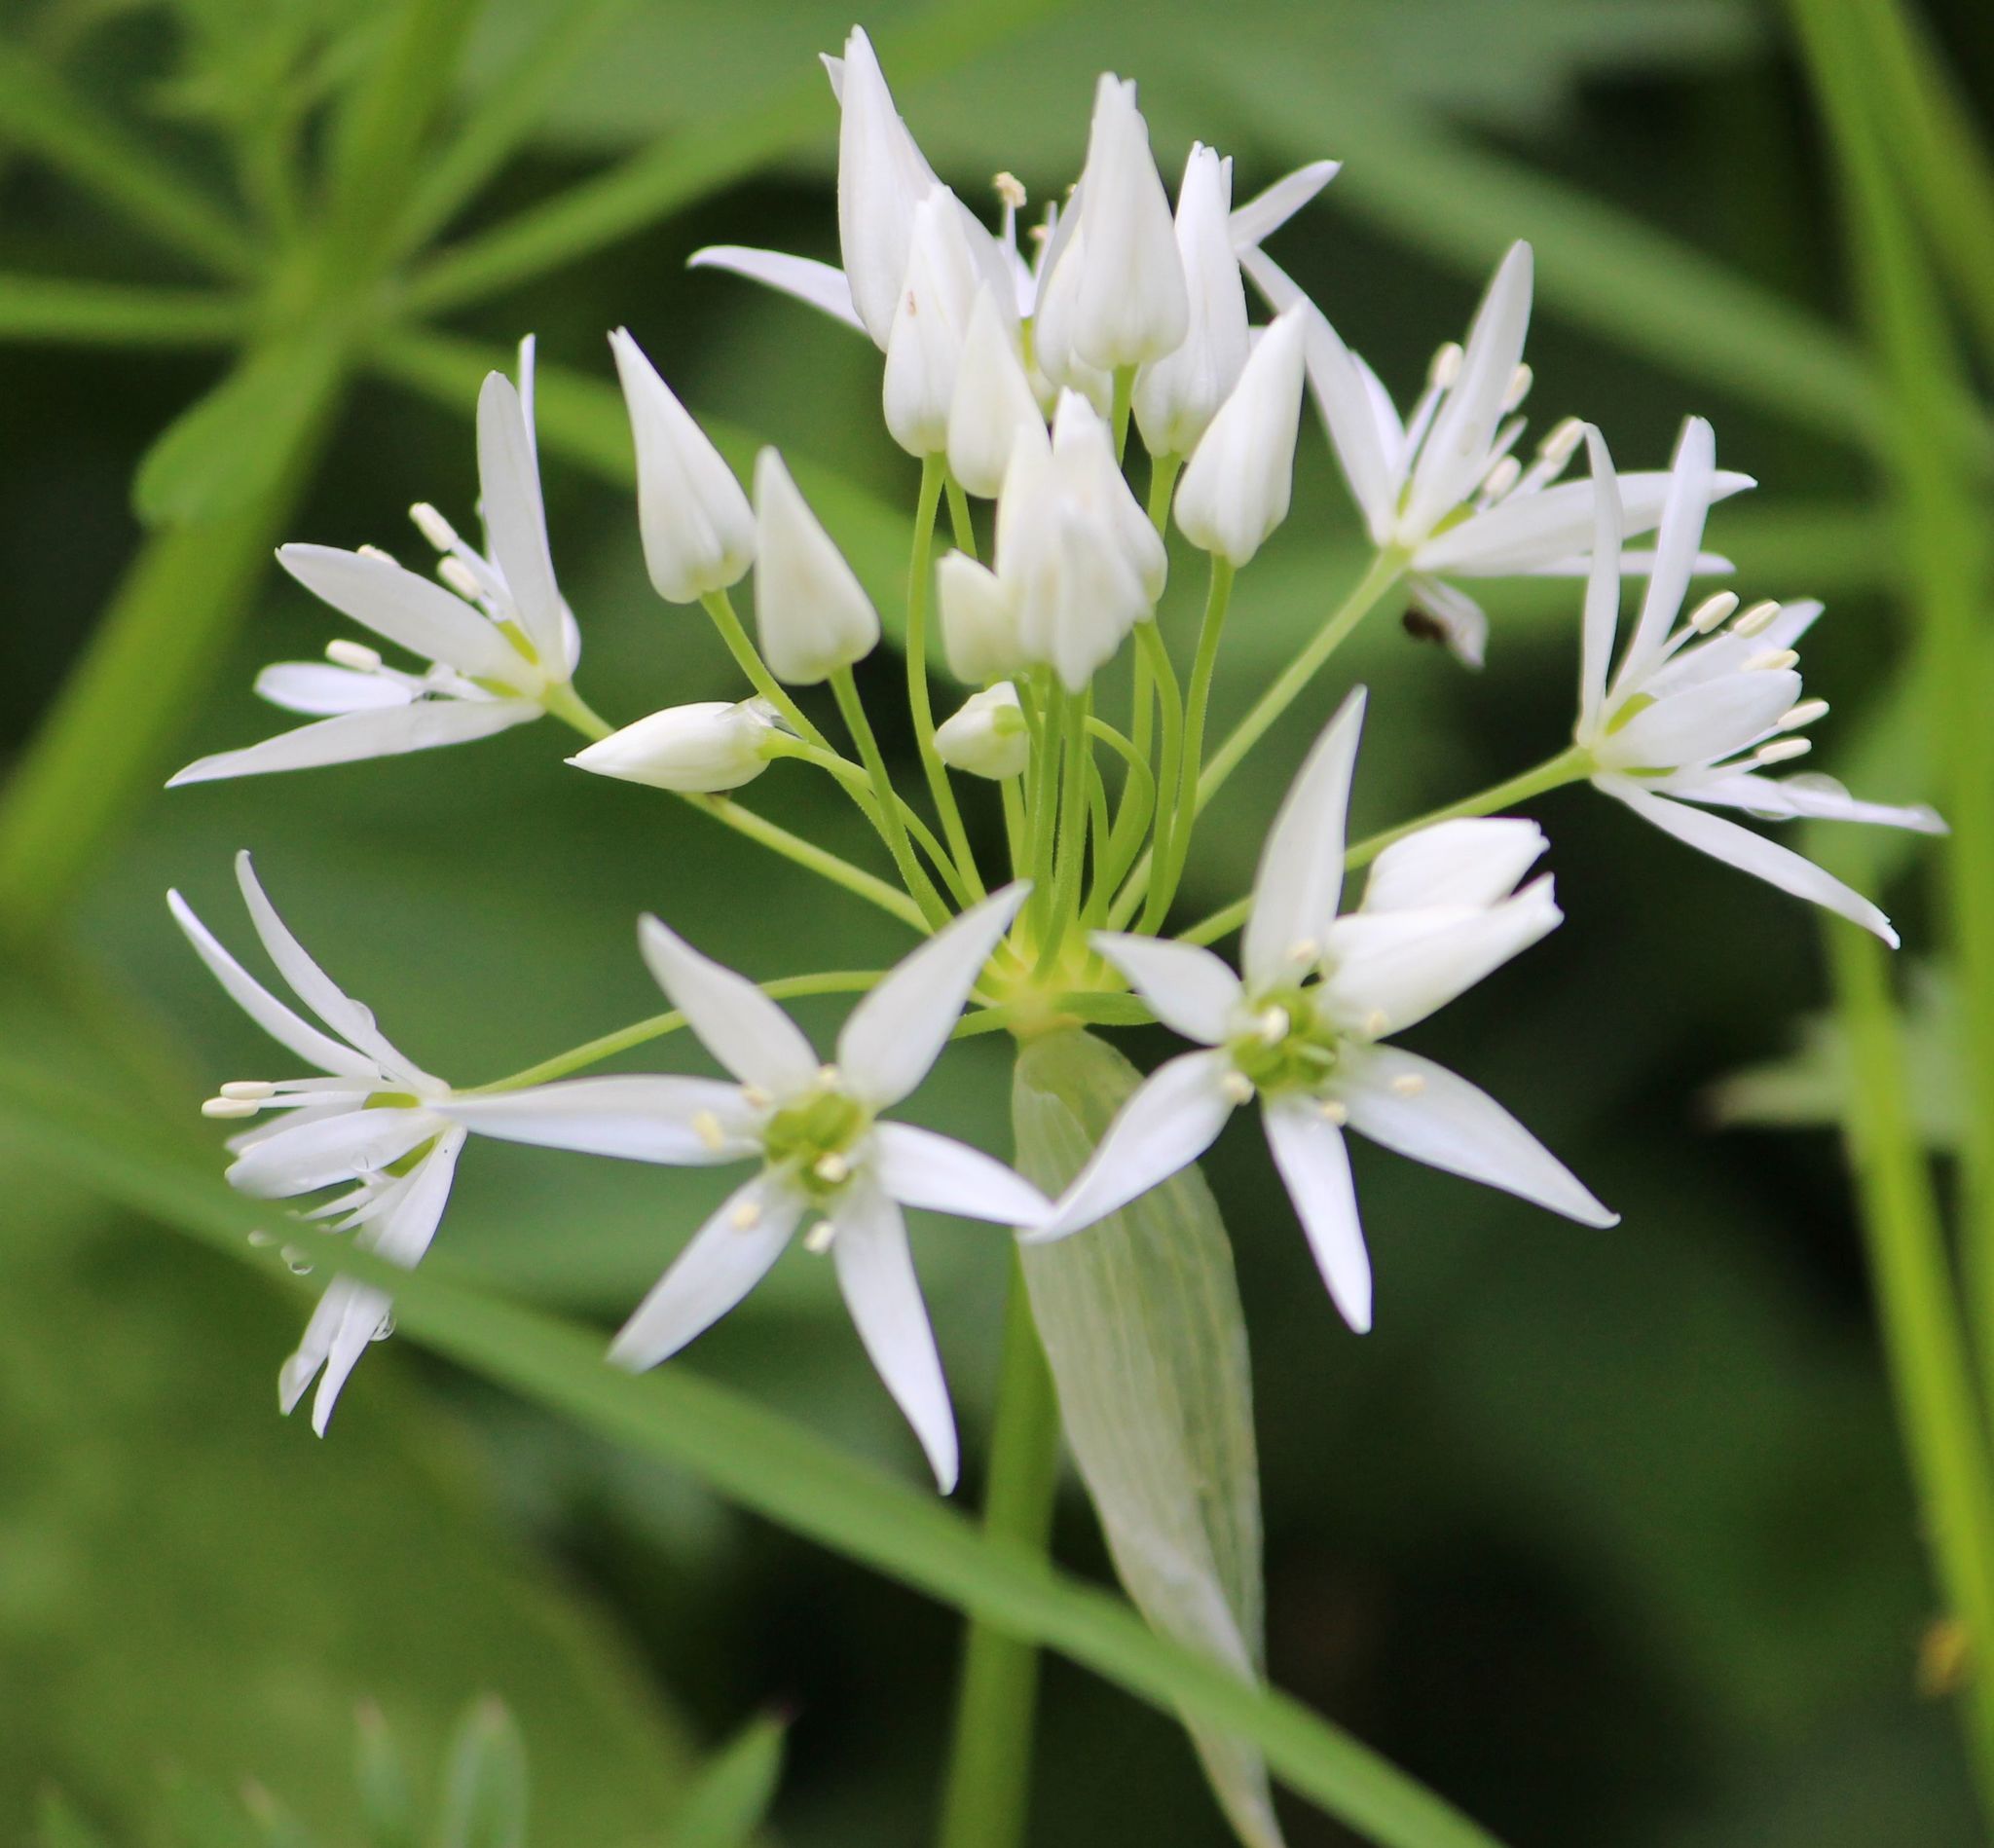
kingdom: Plantae
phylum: Tracheophyta
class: Liliopsida
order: Asparagales
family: Amaryllidaceae
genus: Allium
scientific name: Allium ursinum
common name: Ramsons
